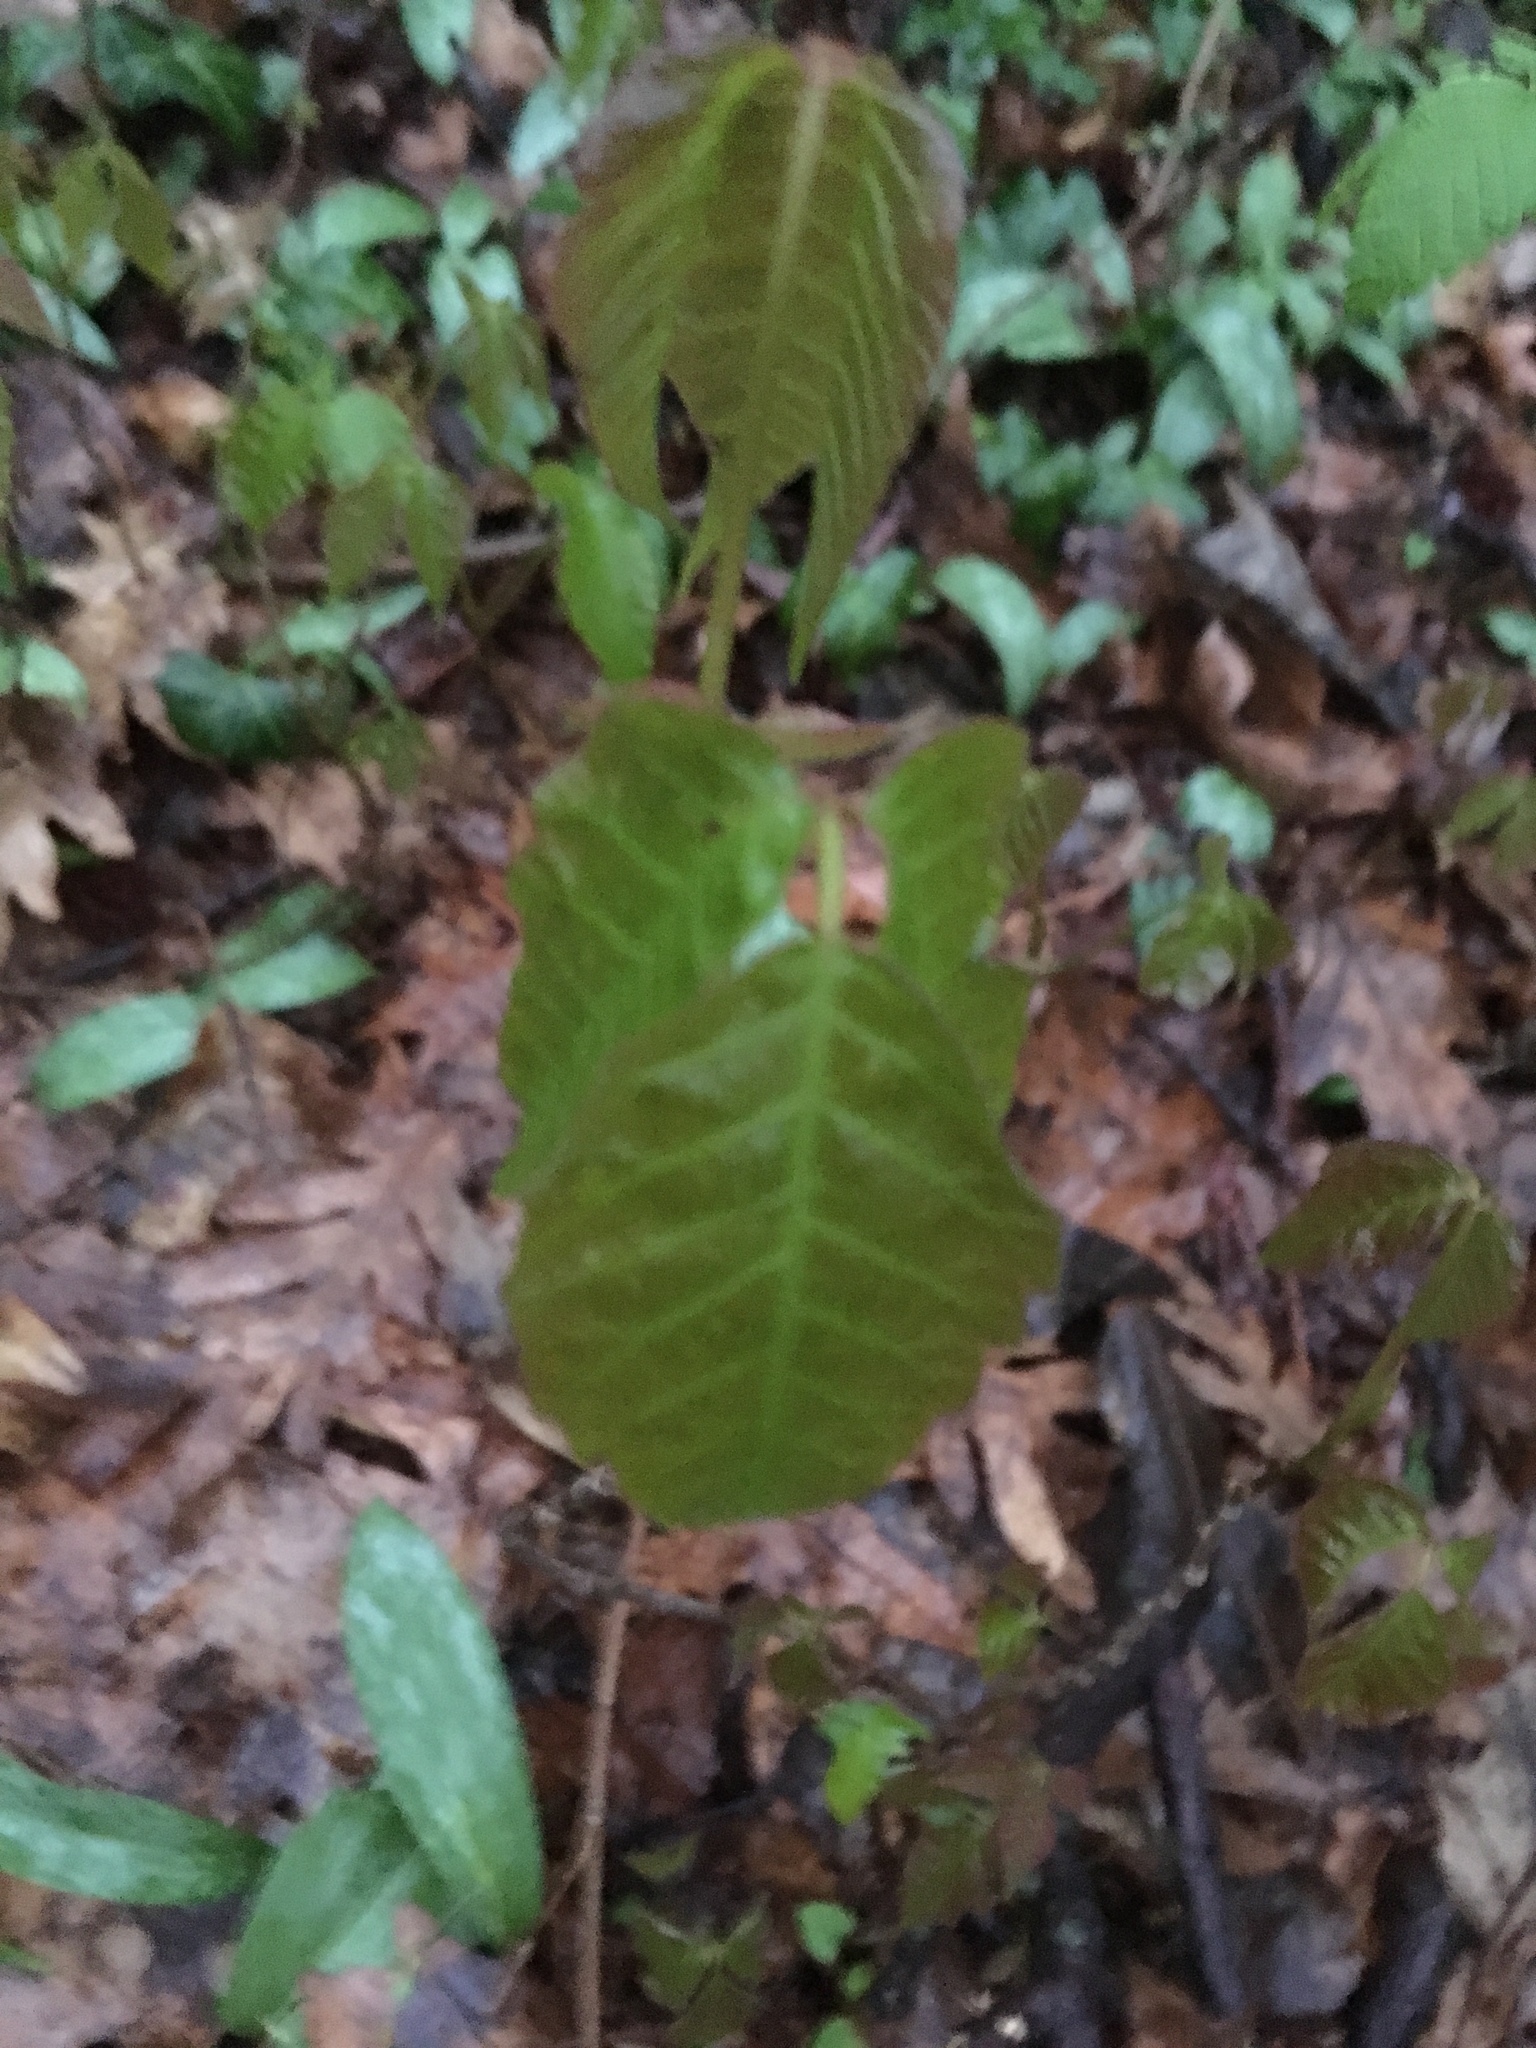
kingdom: Plantae
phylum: Tracheophyta
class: Magnoliopsida
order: Sapindales
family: Anacardiaceae
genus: Toxicodendron
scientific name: Toxicodendron radicans
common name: Poison ivy
